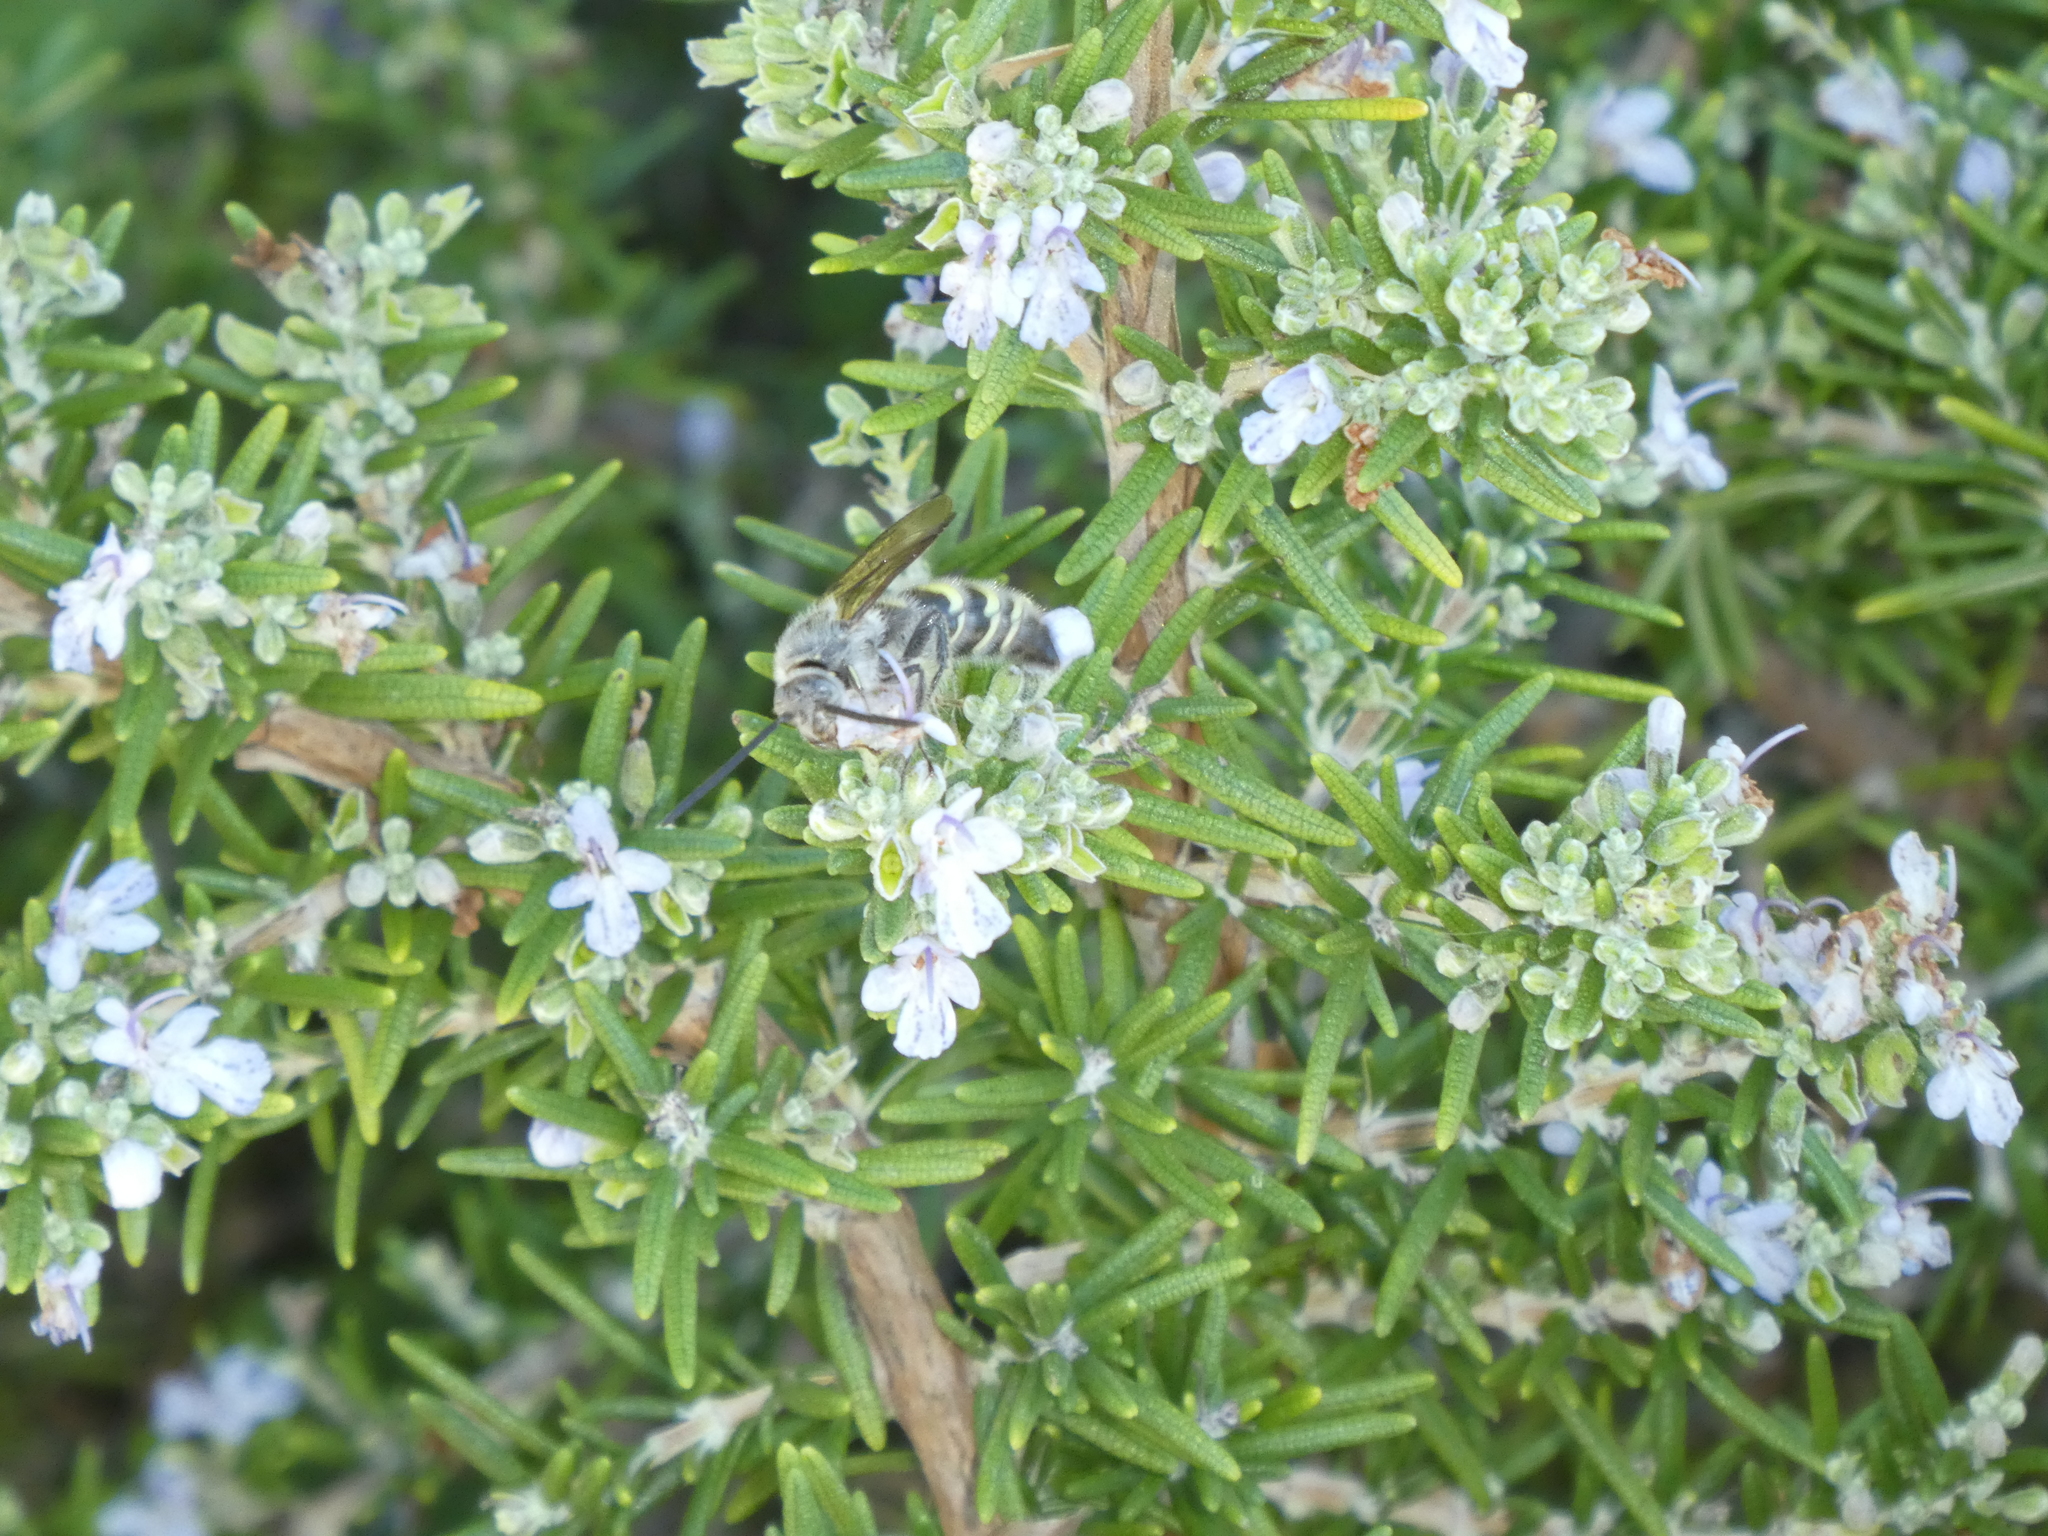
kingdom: Animalia
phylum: Arthropoda
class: Insecta
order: Hymenoptera
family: Scoliidae
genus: Dielis
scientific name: Dielis tolteca
